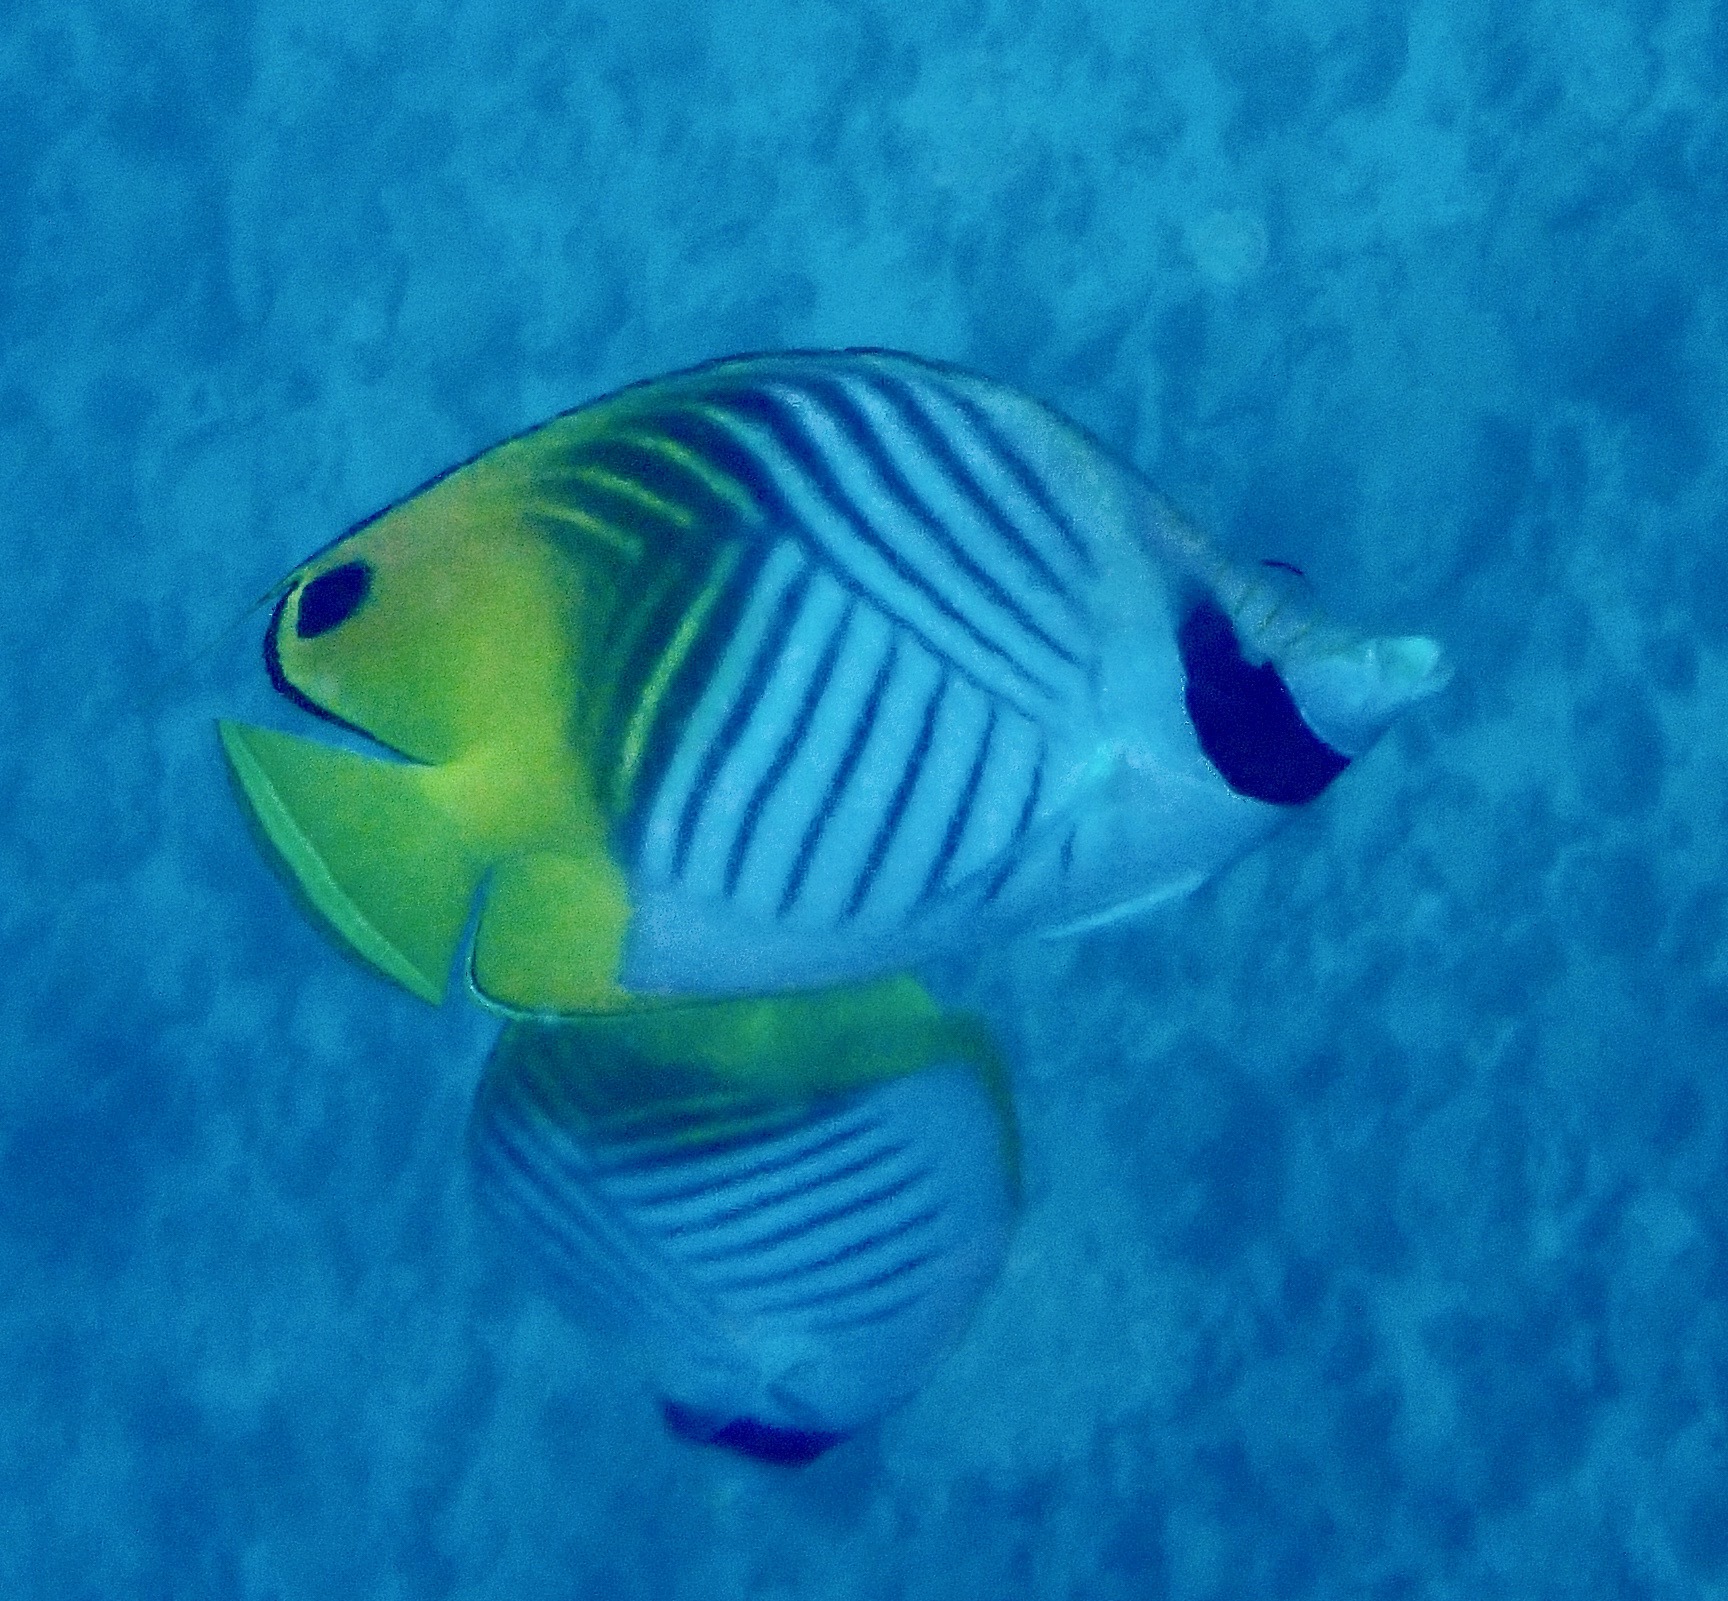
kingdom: Animalia
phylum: Chordata
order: Perciformes
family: Chaetodontidae
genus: Chaetodon
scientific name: Chaetodon auriga
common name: Threadfin butterflyfish
